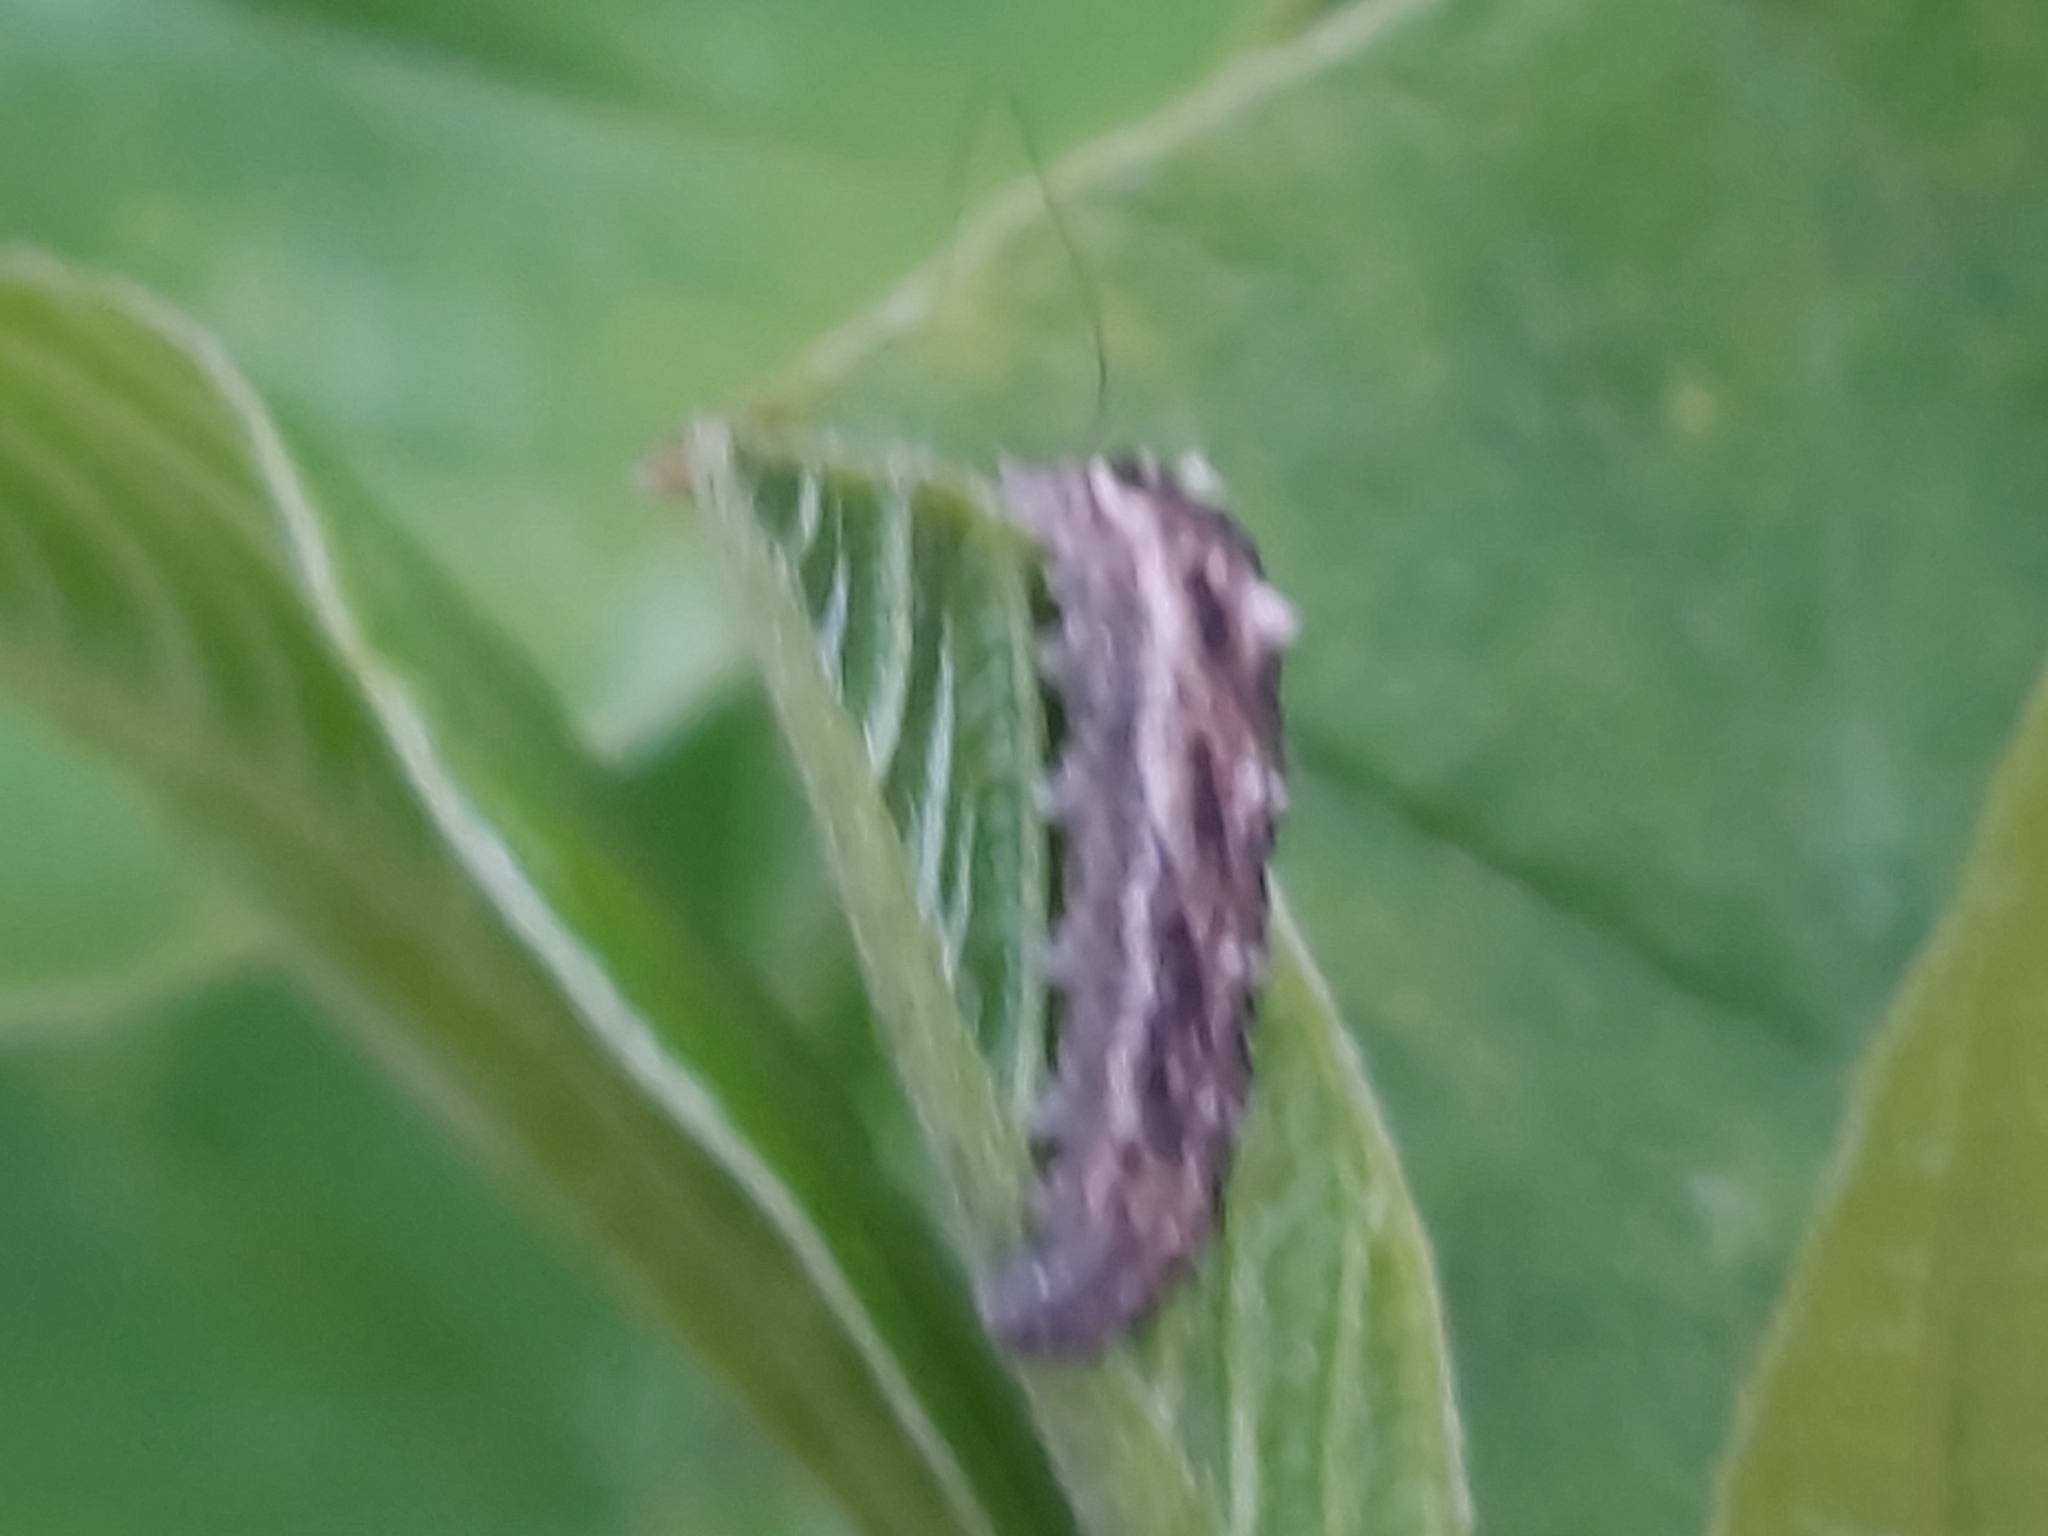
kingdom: Animalia
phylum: Arthropoda
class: Insecta
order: Diptera
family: Syrphidae
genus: Eupeodes
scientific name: Eupeodes
